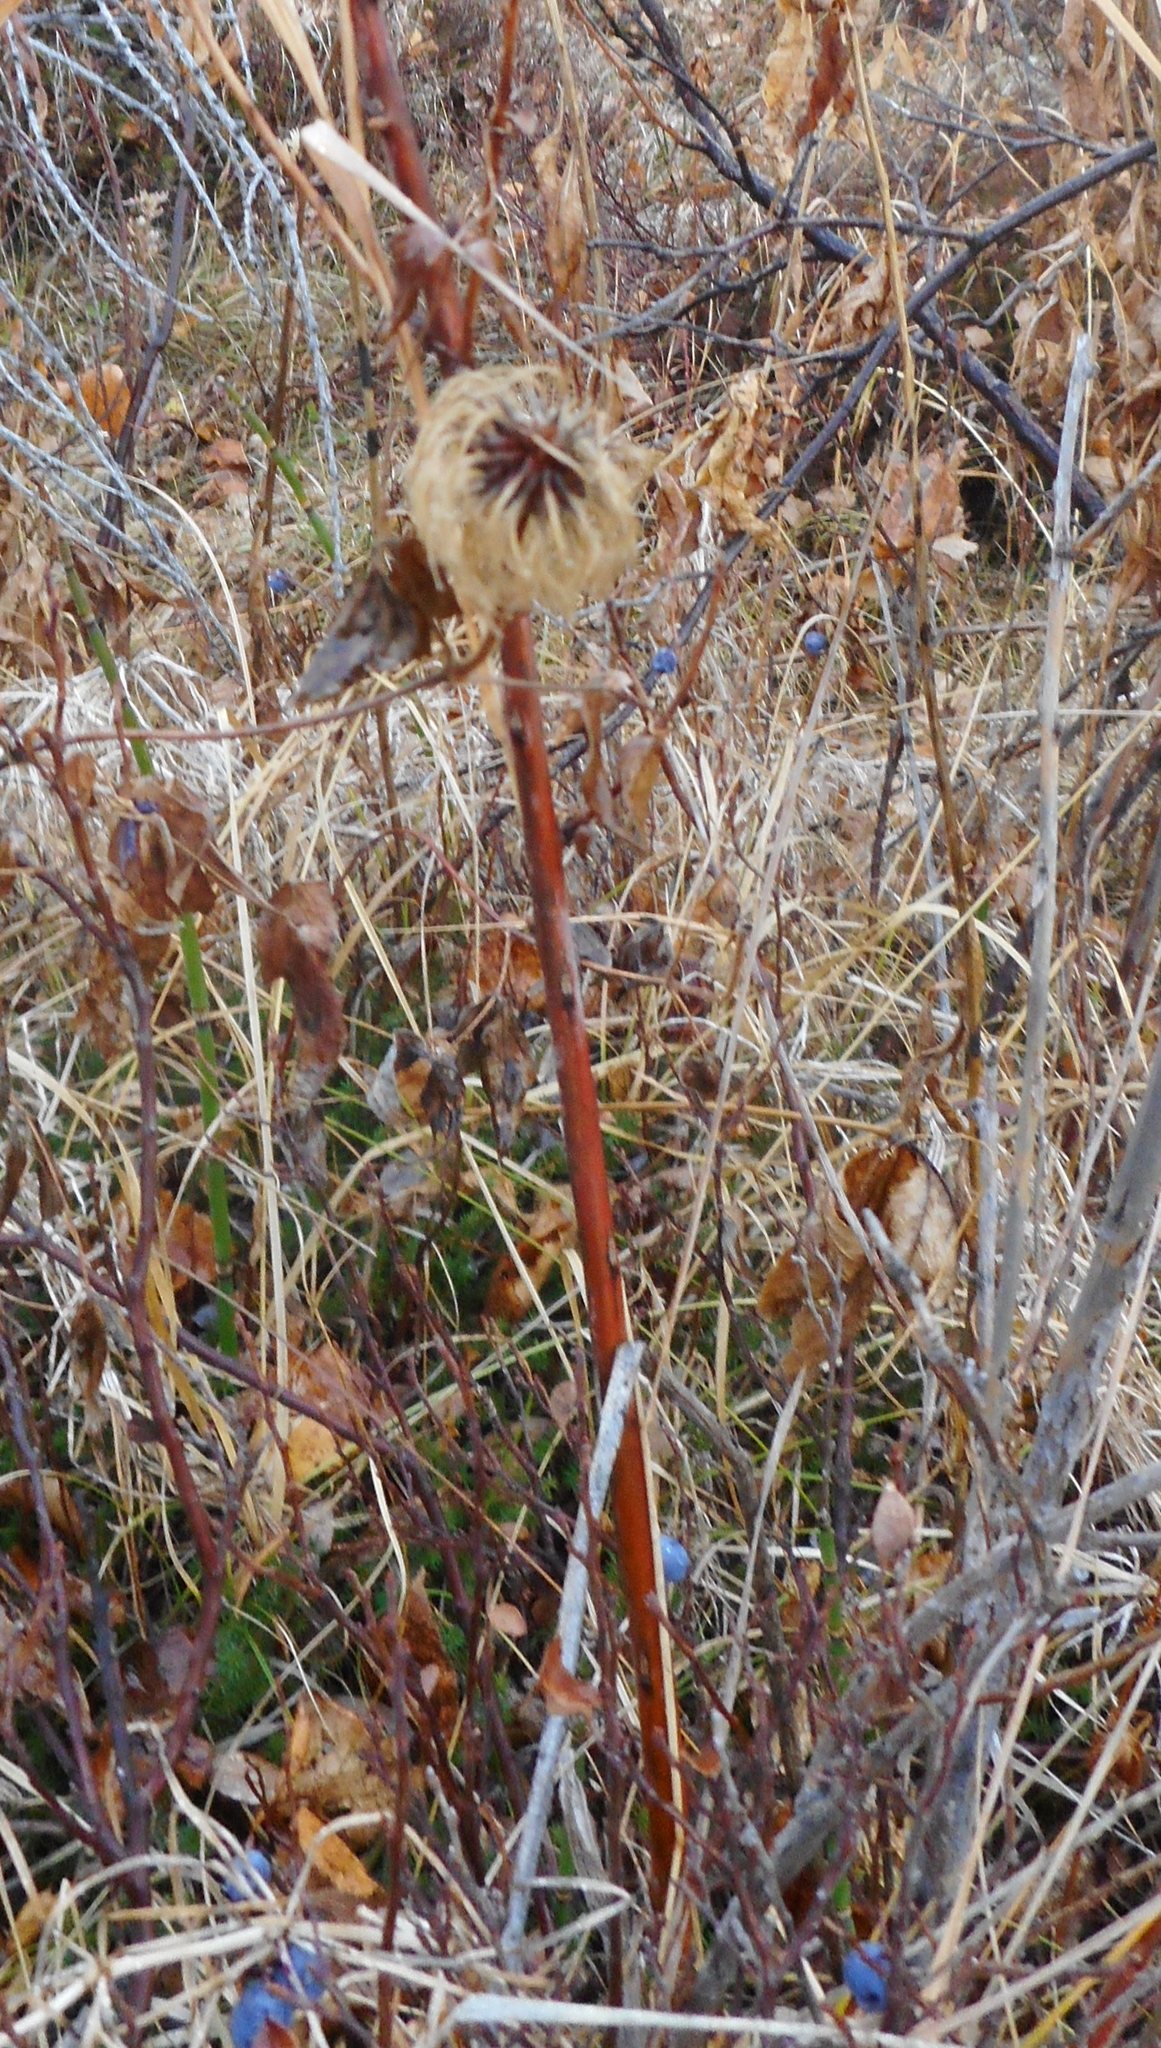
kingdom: Plantae
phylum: Tracheophyta
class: Magnoliopsida
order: Ranunculales
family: Ranunculaceae
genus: Clematis
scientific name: Clematis fusca
